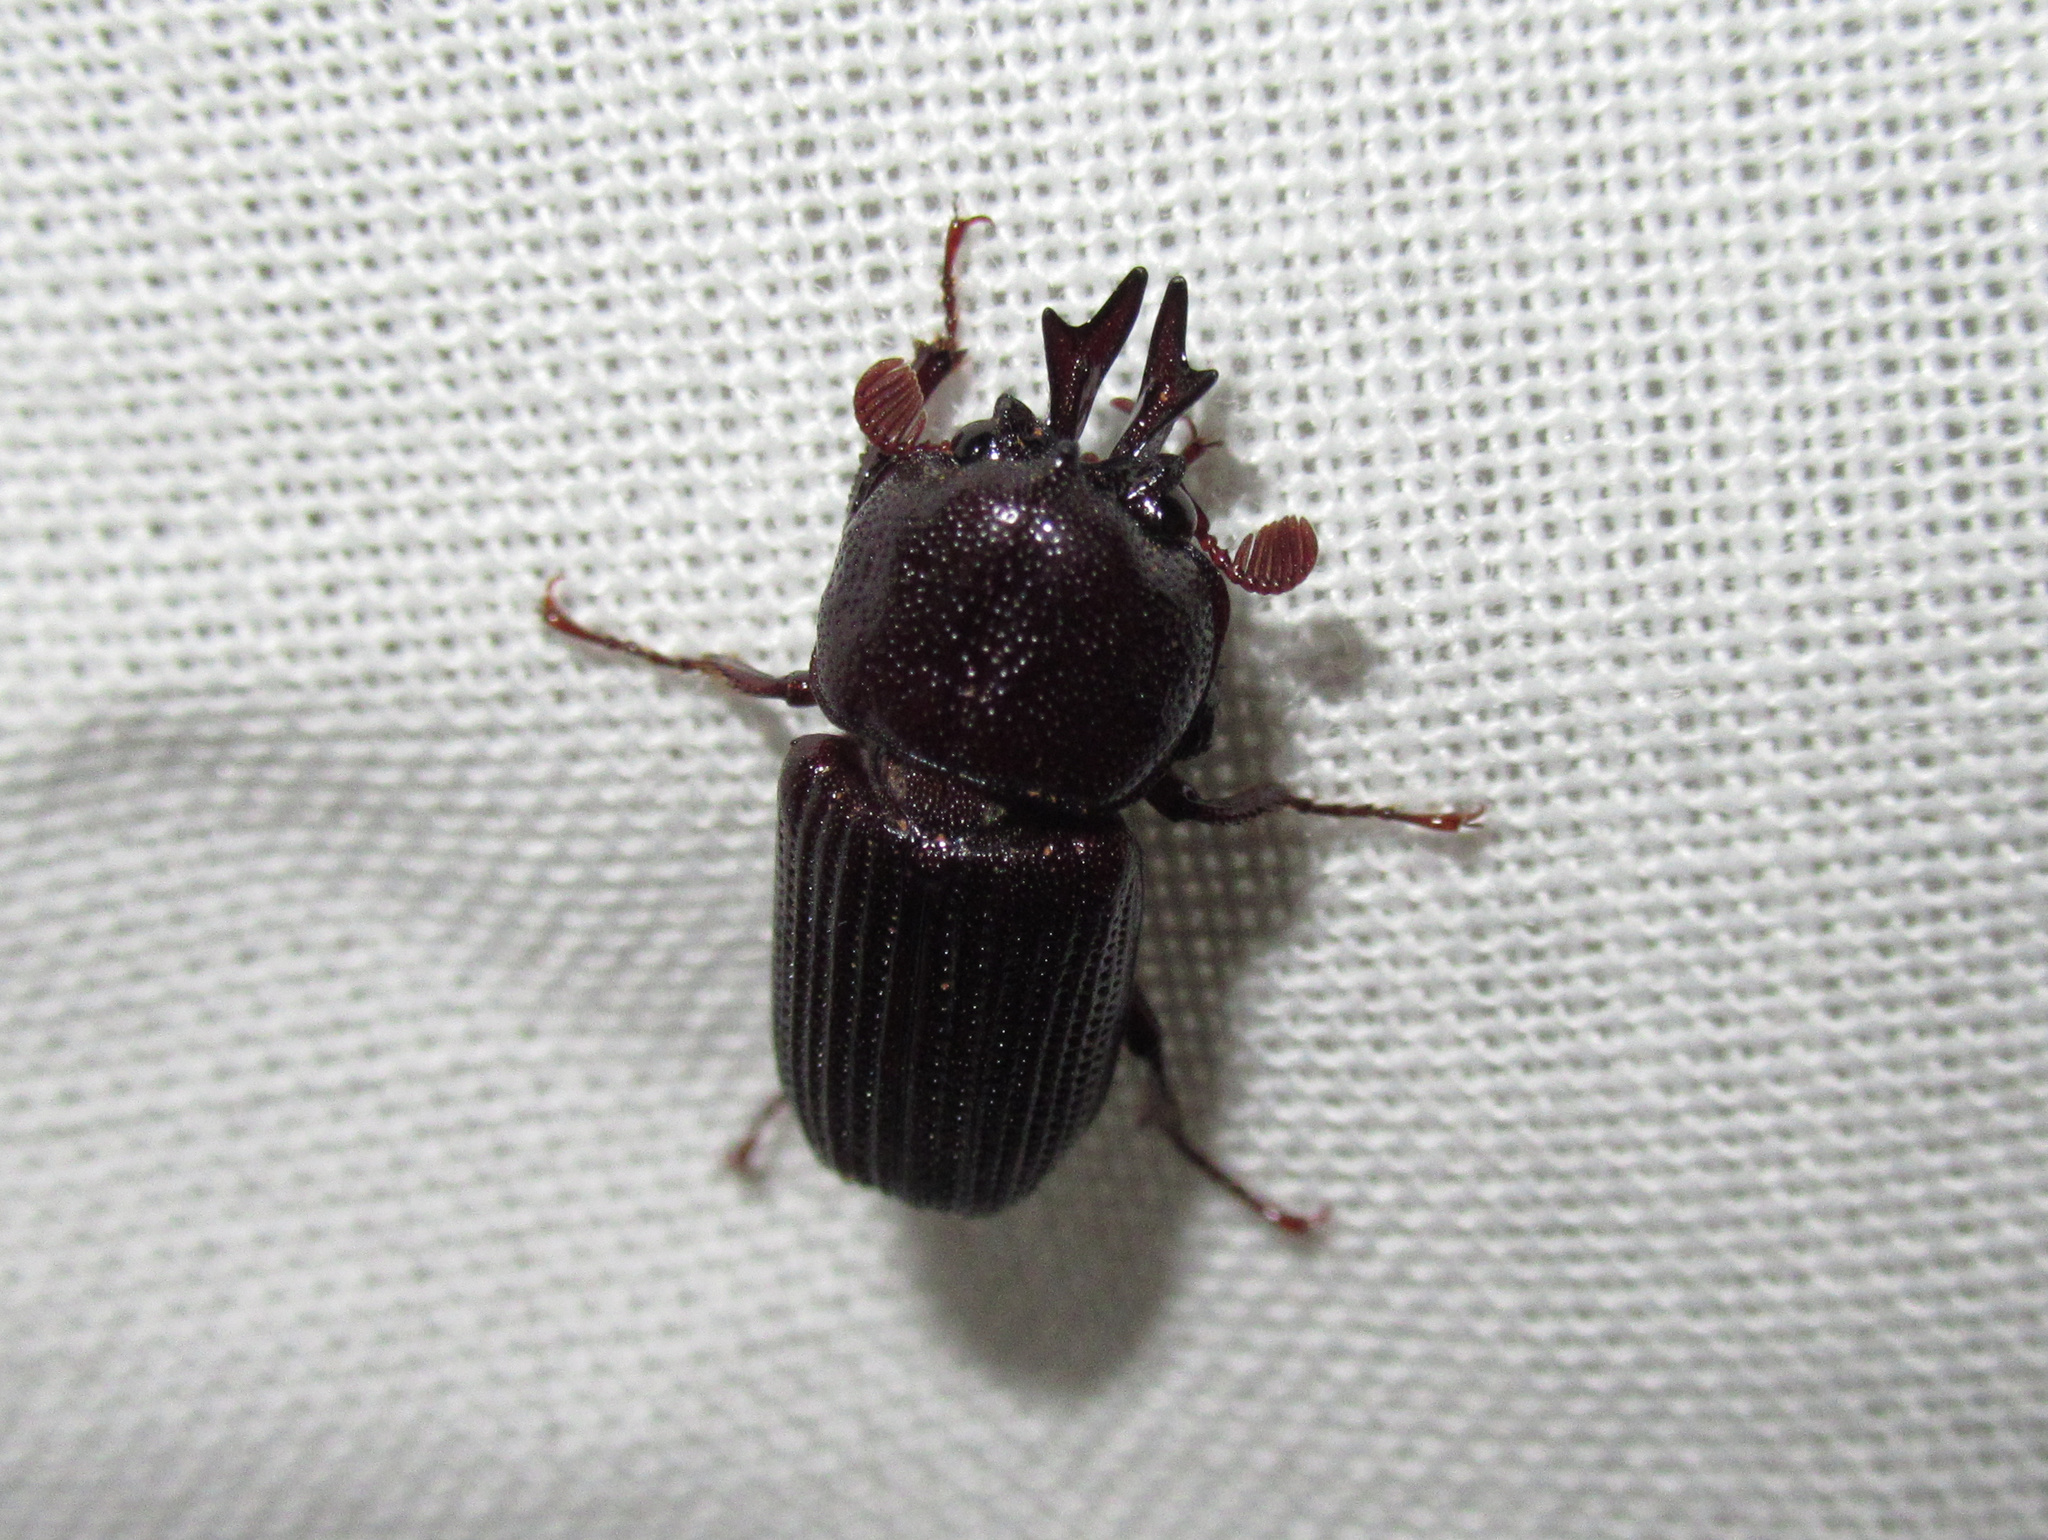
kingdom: Animalia
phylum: Arthropoda
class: Insecta
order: Coleoptera
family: Lucanidae
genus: Syndesus
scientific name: Syndesus cornutus
